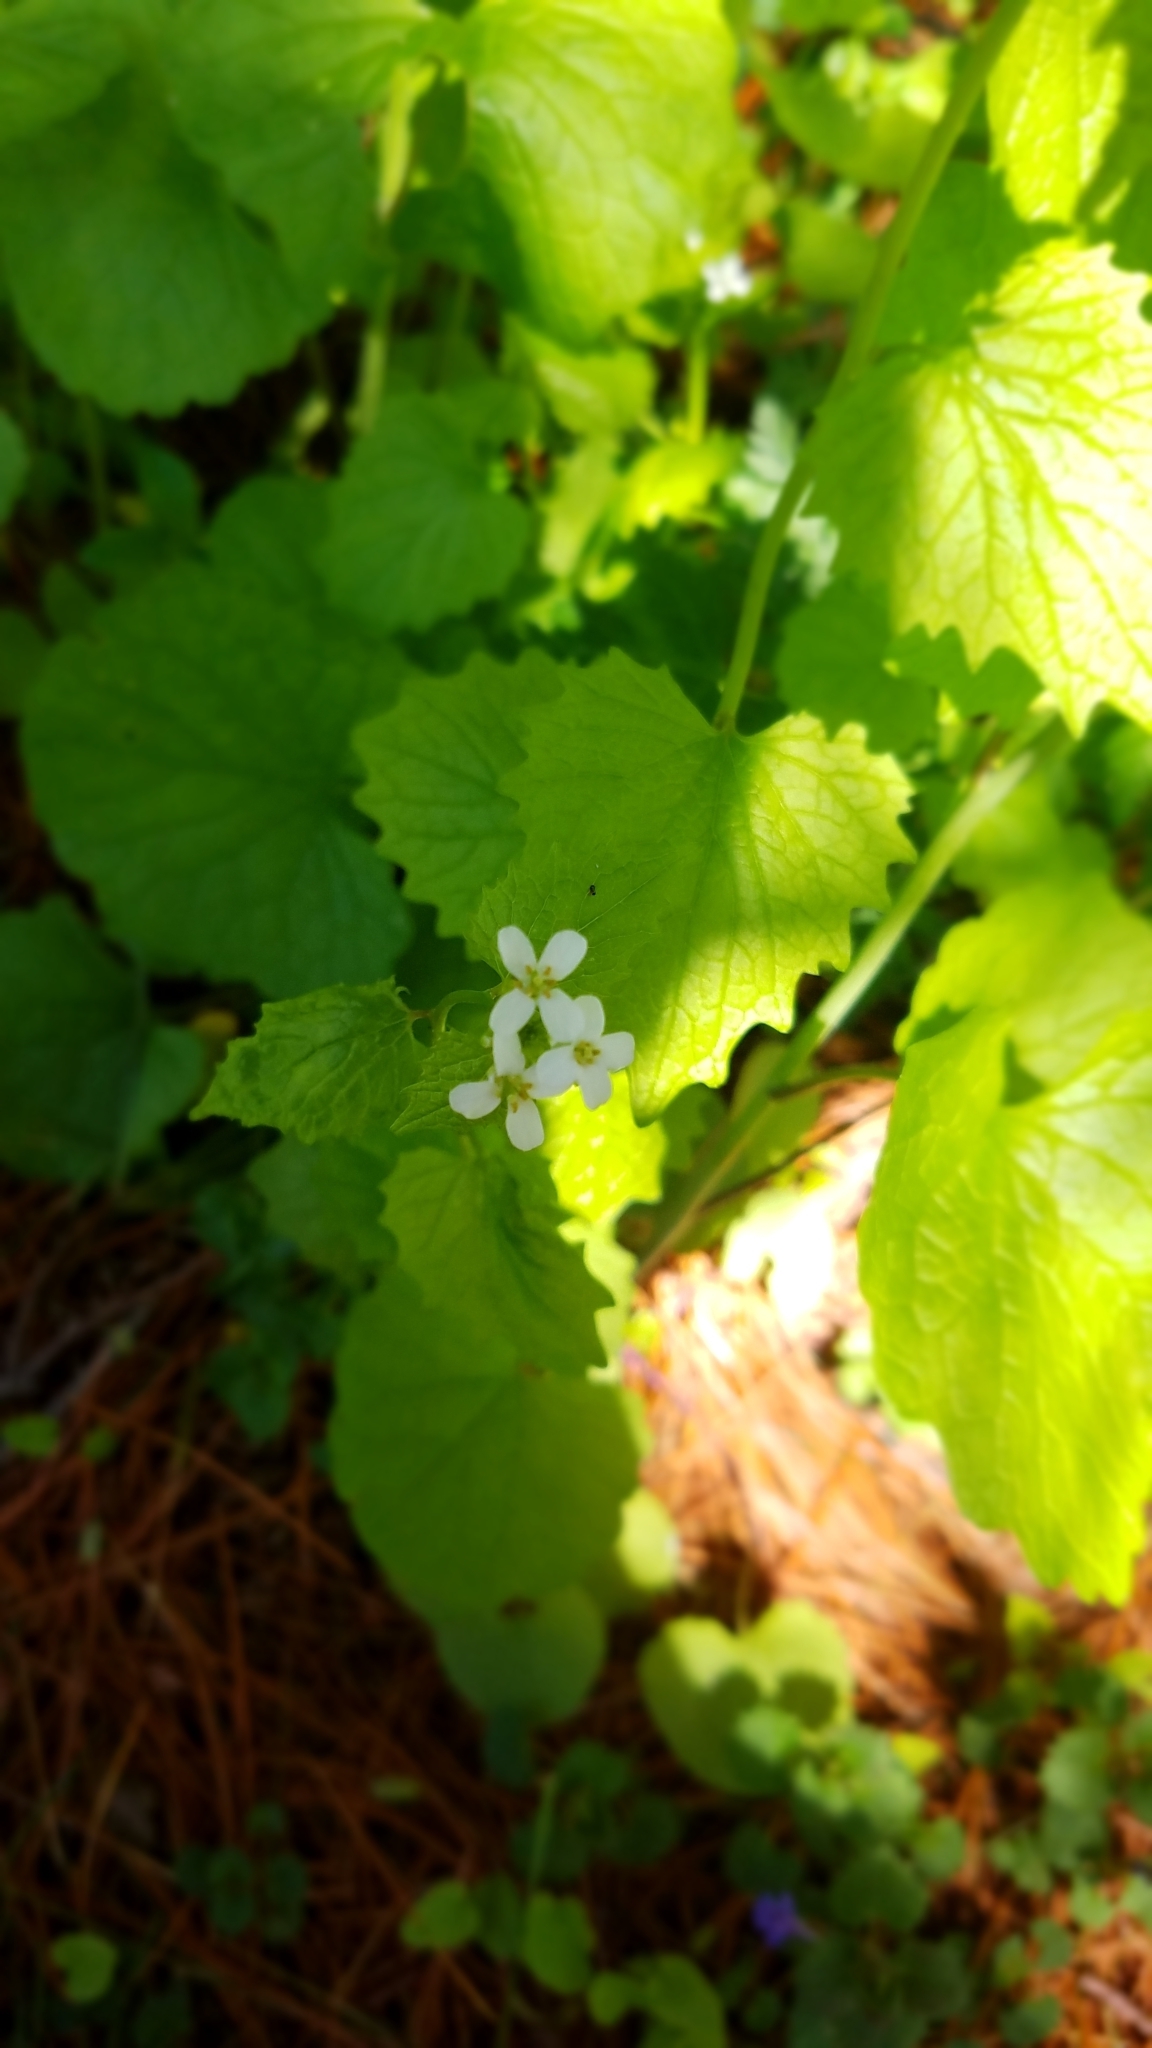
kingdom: Plantae
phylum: Tracheophyta
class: Magnoliopsida
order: Brassicales
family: Brassicaceae
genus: Alliaria
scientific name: Alliaria petiolata
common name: Garlic mustard
